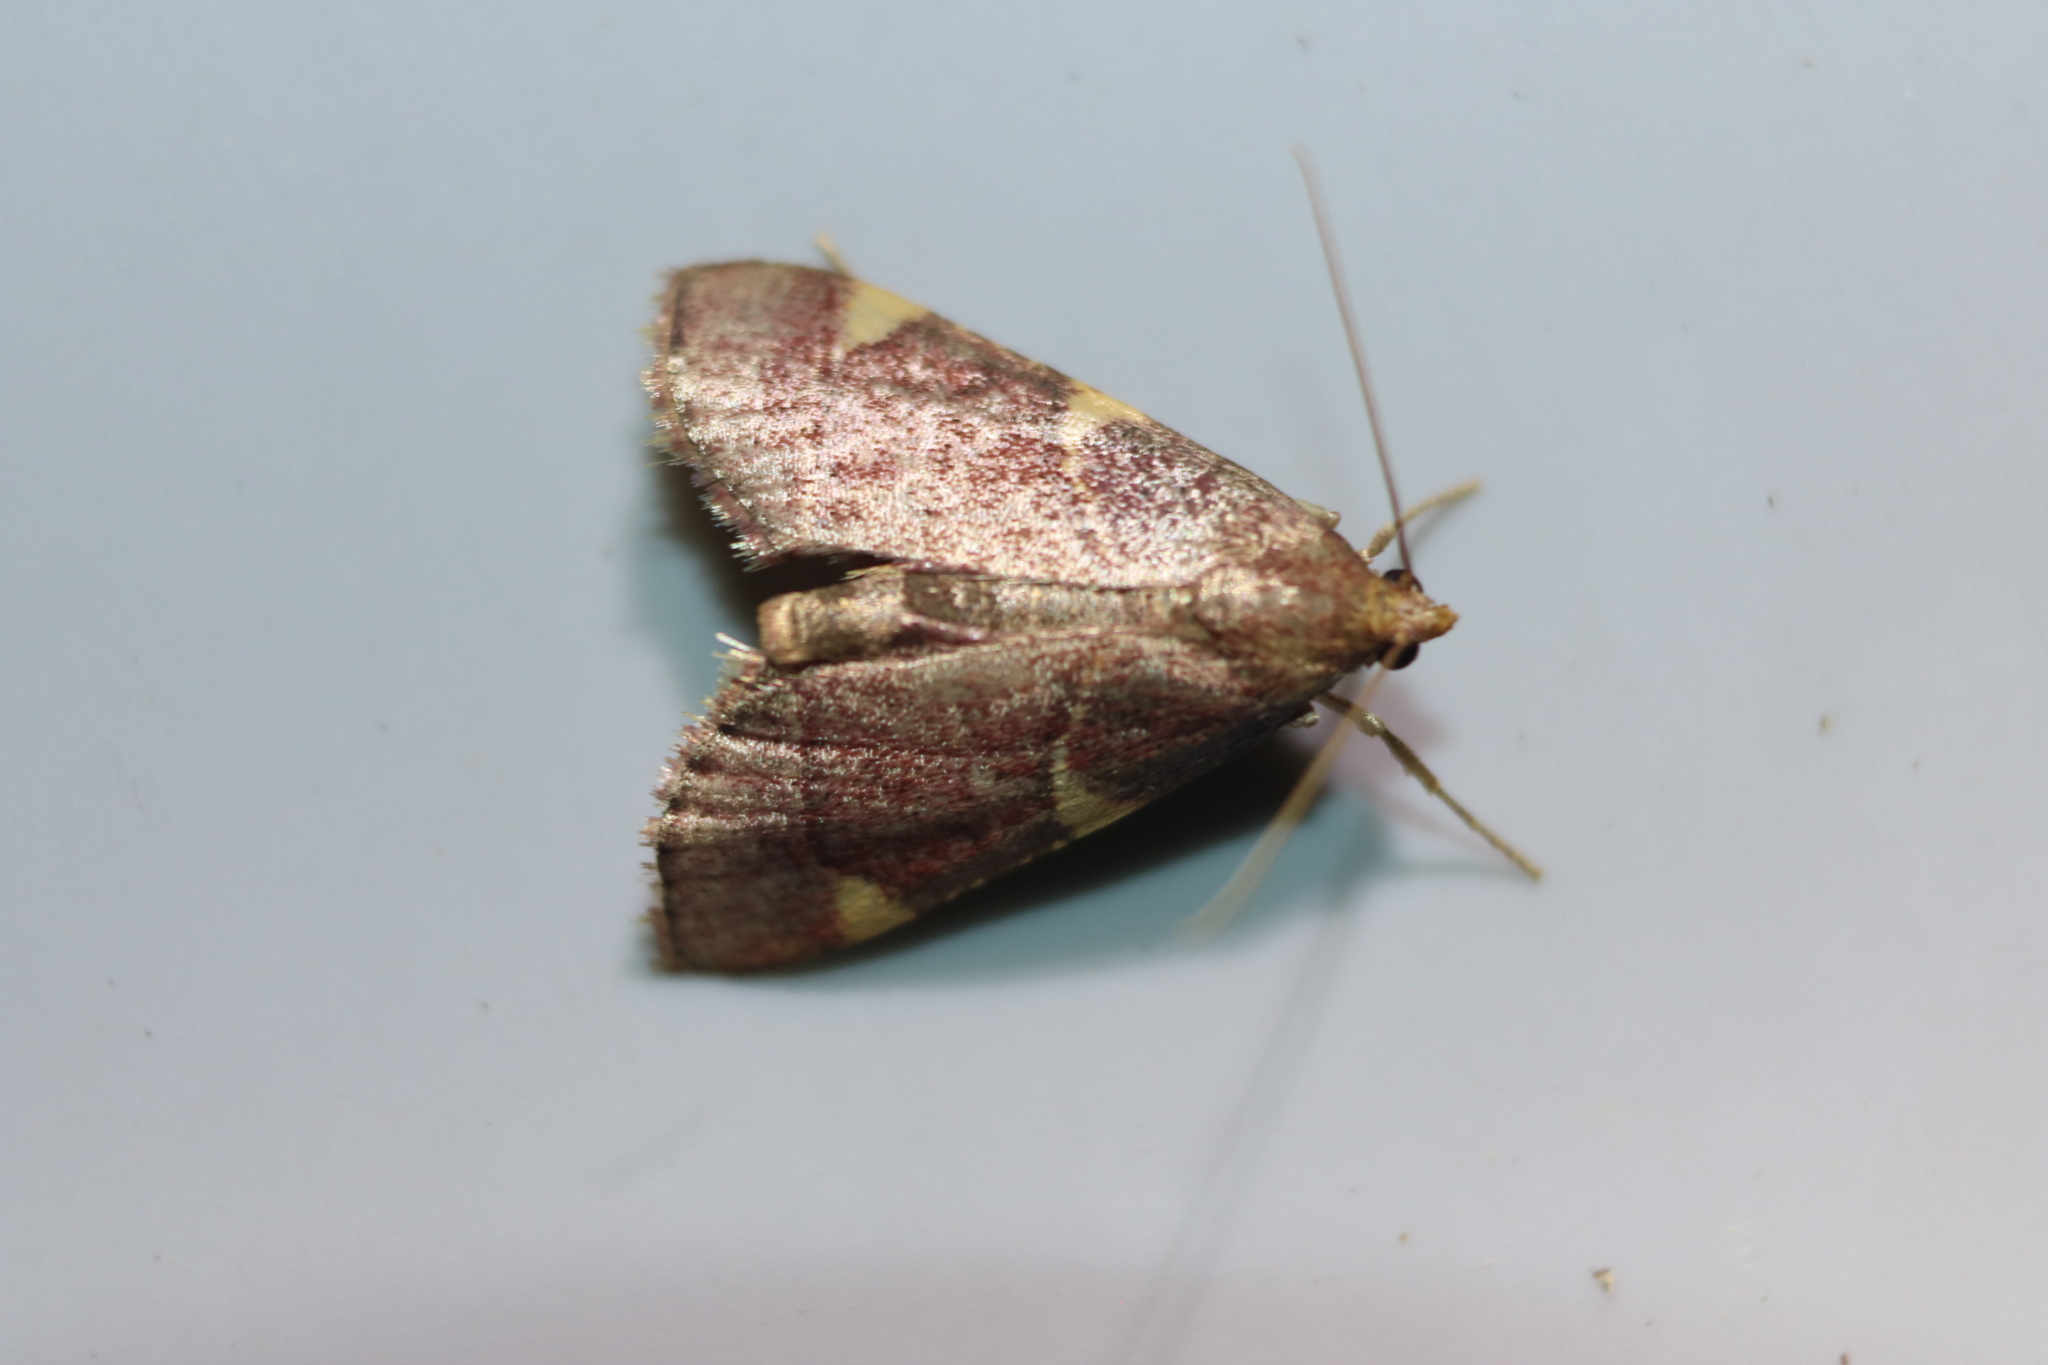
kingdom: Animalia
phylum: Arthropoda
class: Insecta
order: Lepidoptera
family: Pyralidae
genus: Hypsopygia
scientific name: Hypsopygia olinalis
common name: Yellow-fringed dolichomia moth
